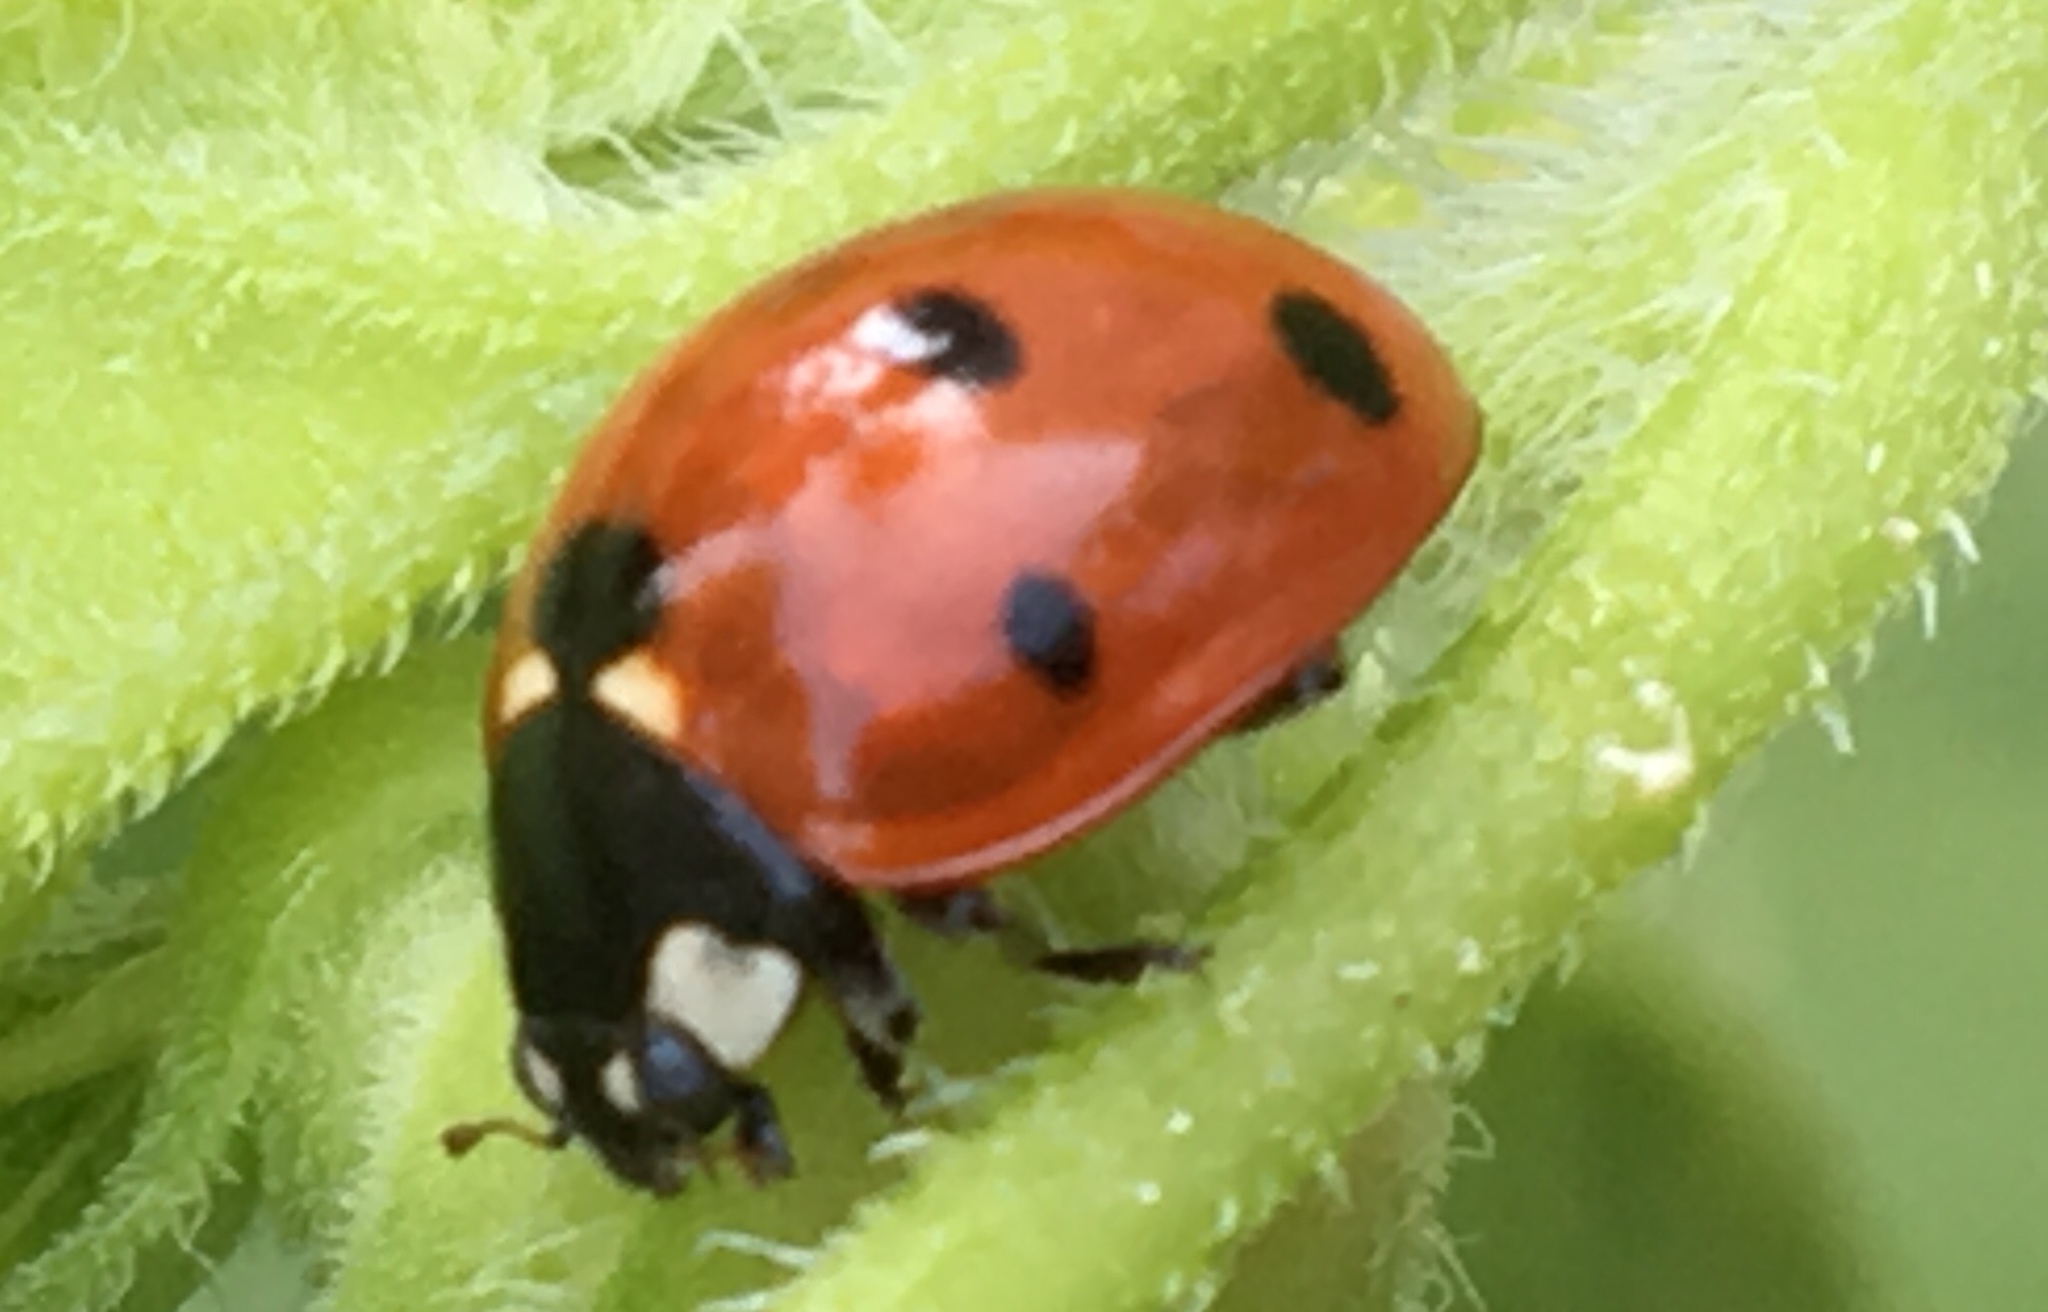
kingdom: Animalia
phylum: Arthropoda
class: Insecta
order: Coleoptera
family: Coccinellidae
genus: Coccinella
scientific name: Coccinella septempunctata
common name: Sevenspotted lady beetle
